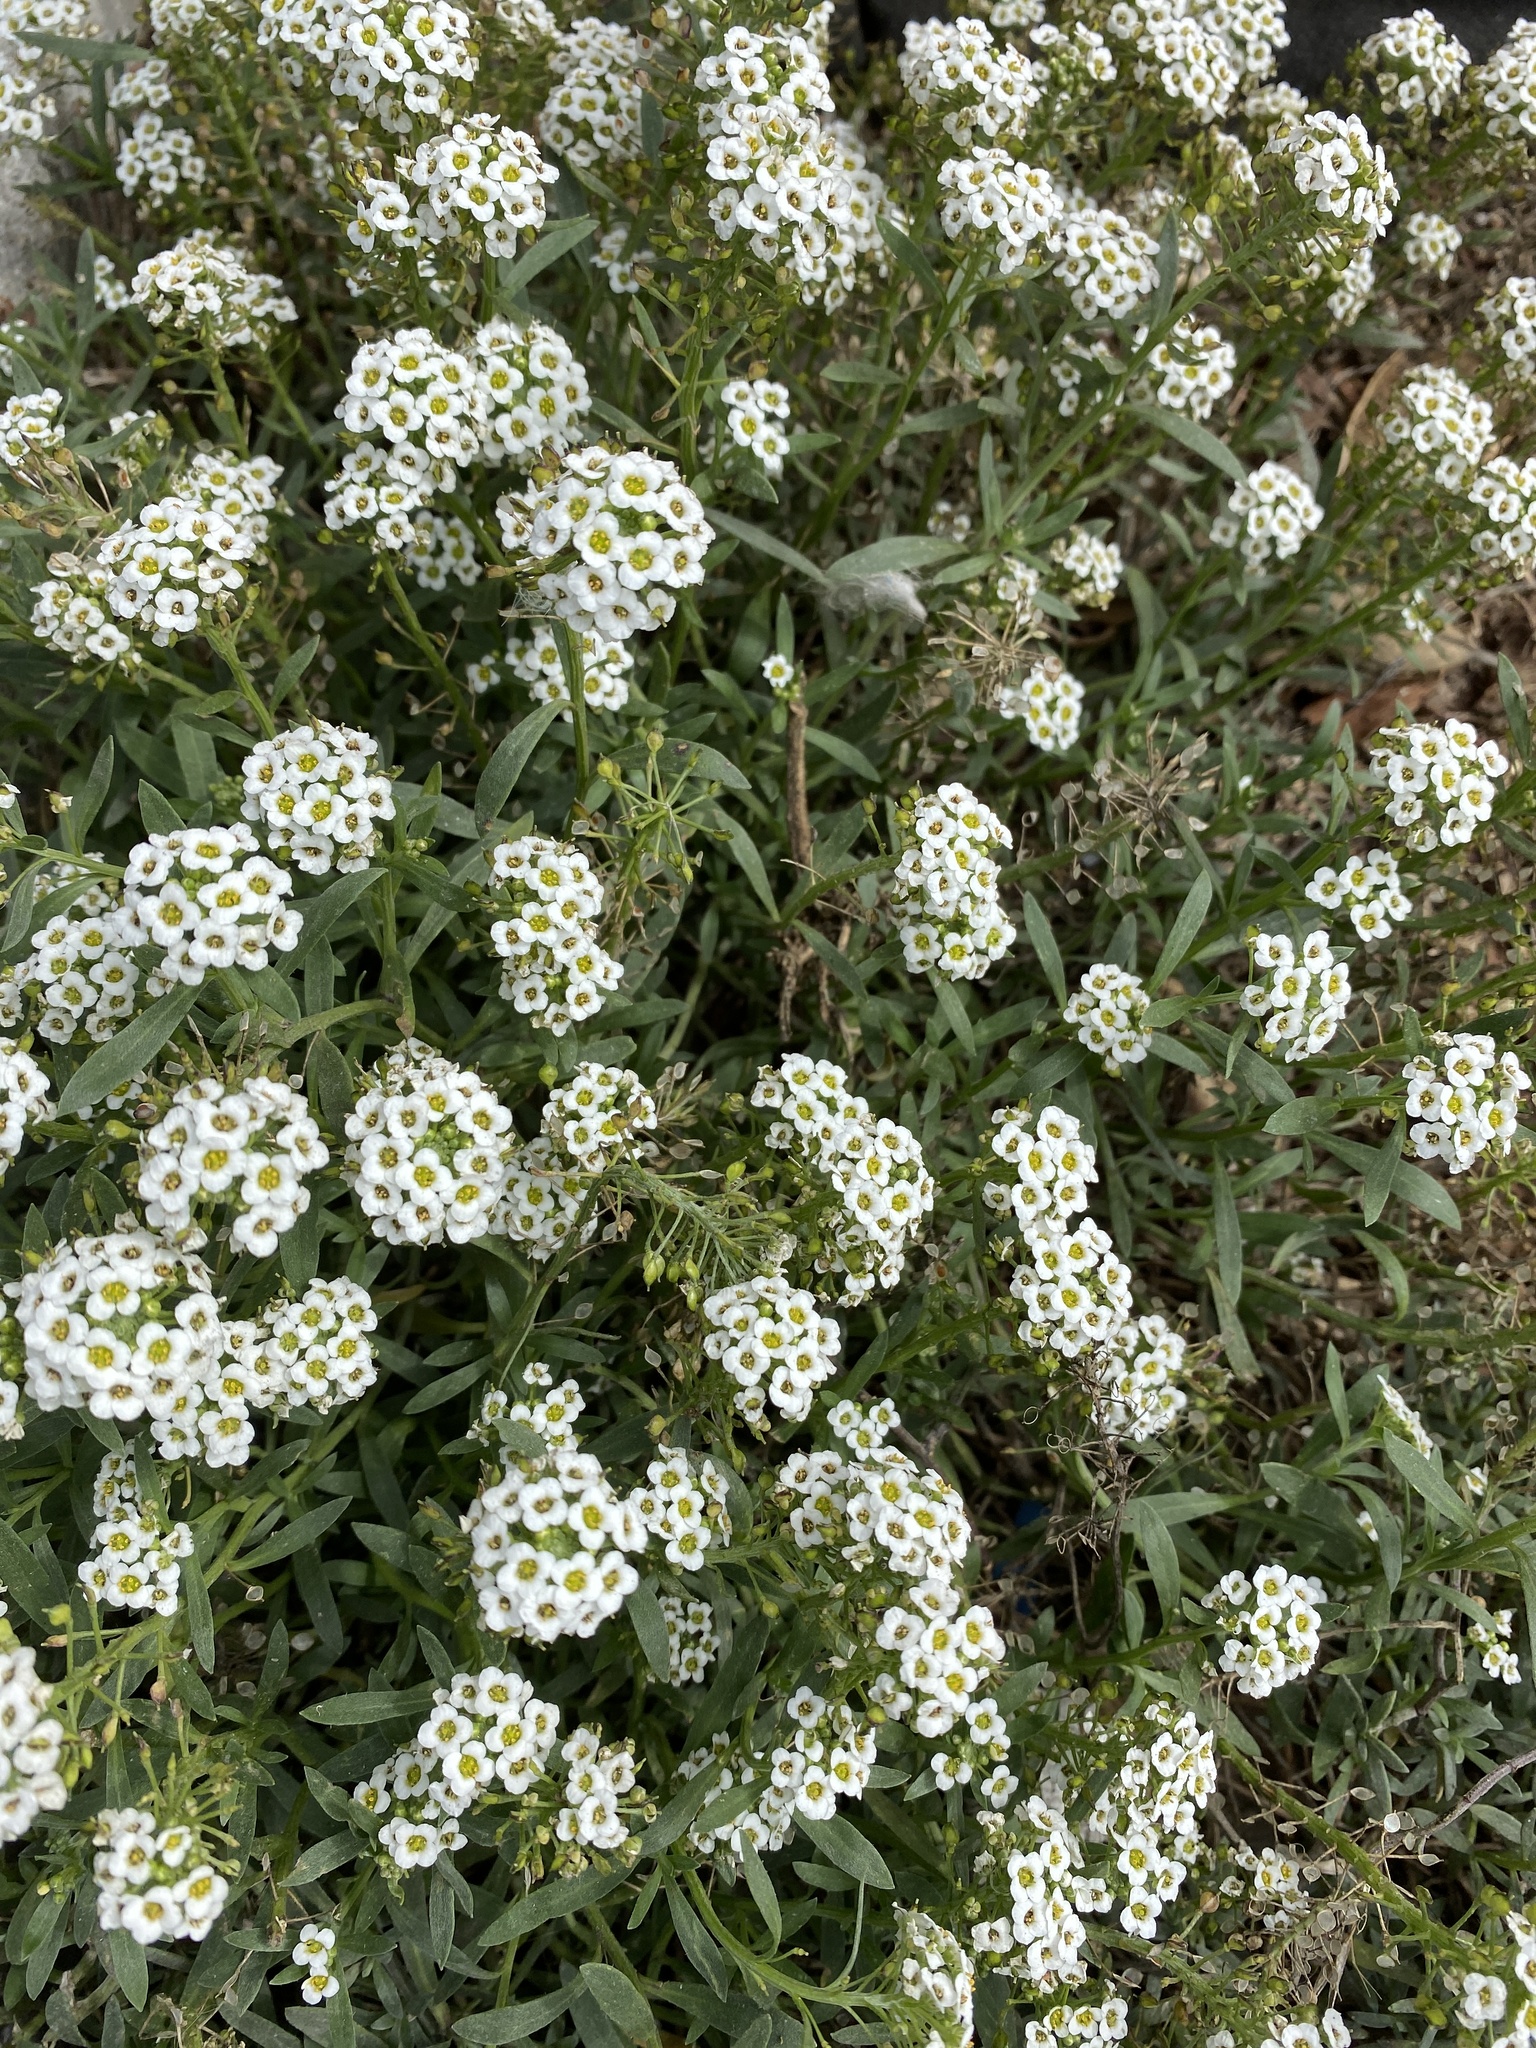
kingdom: Plantae
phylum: Tracheophyta
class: Magnoliopsida
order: Brassicales
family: Brassicaceae
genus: Lobularia
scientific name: Lobularia maritima
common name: Sweet alison
